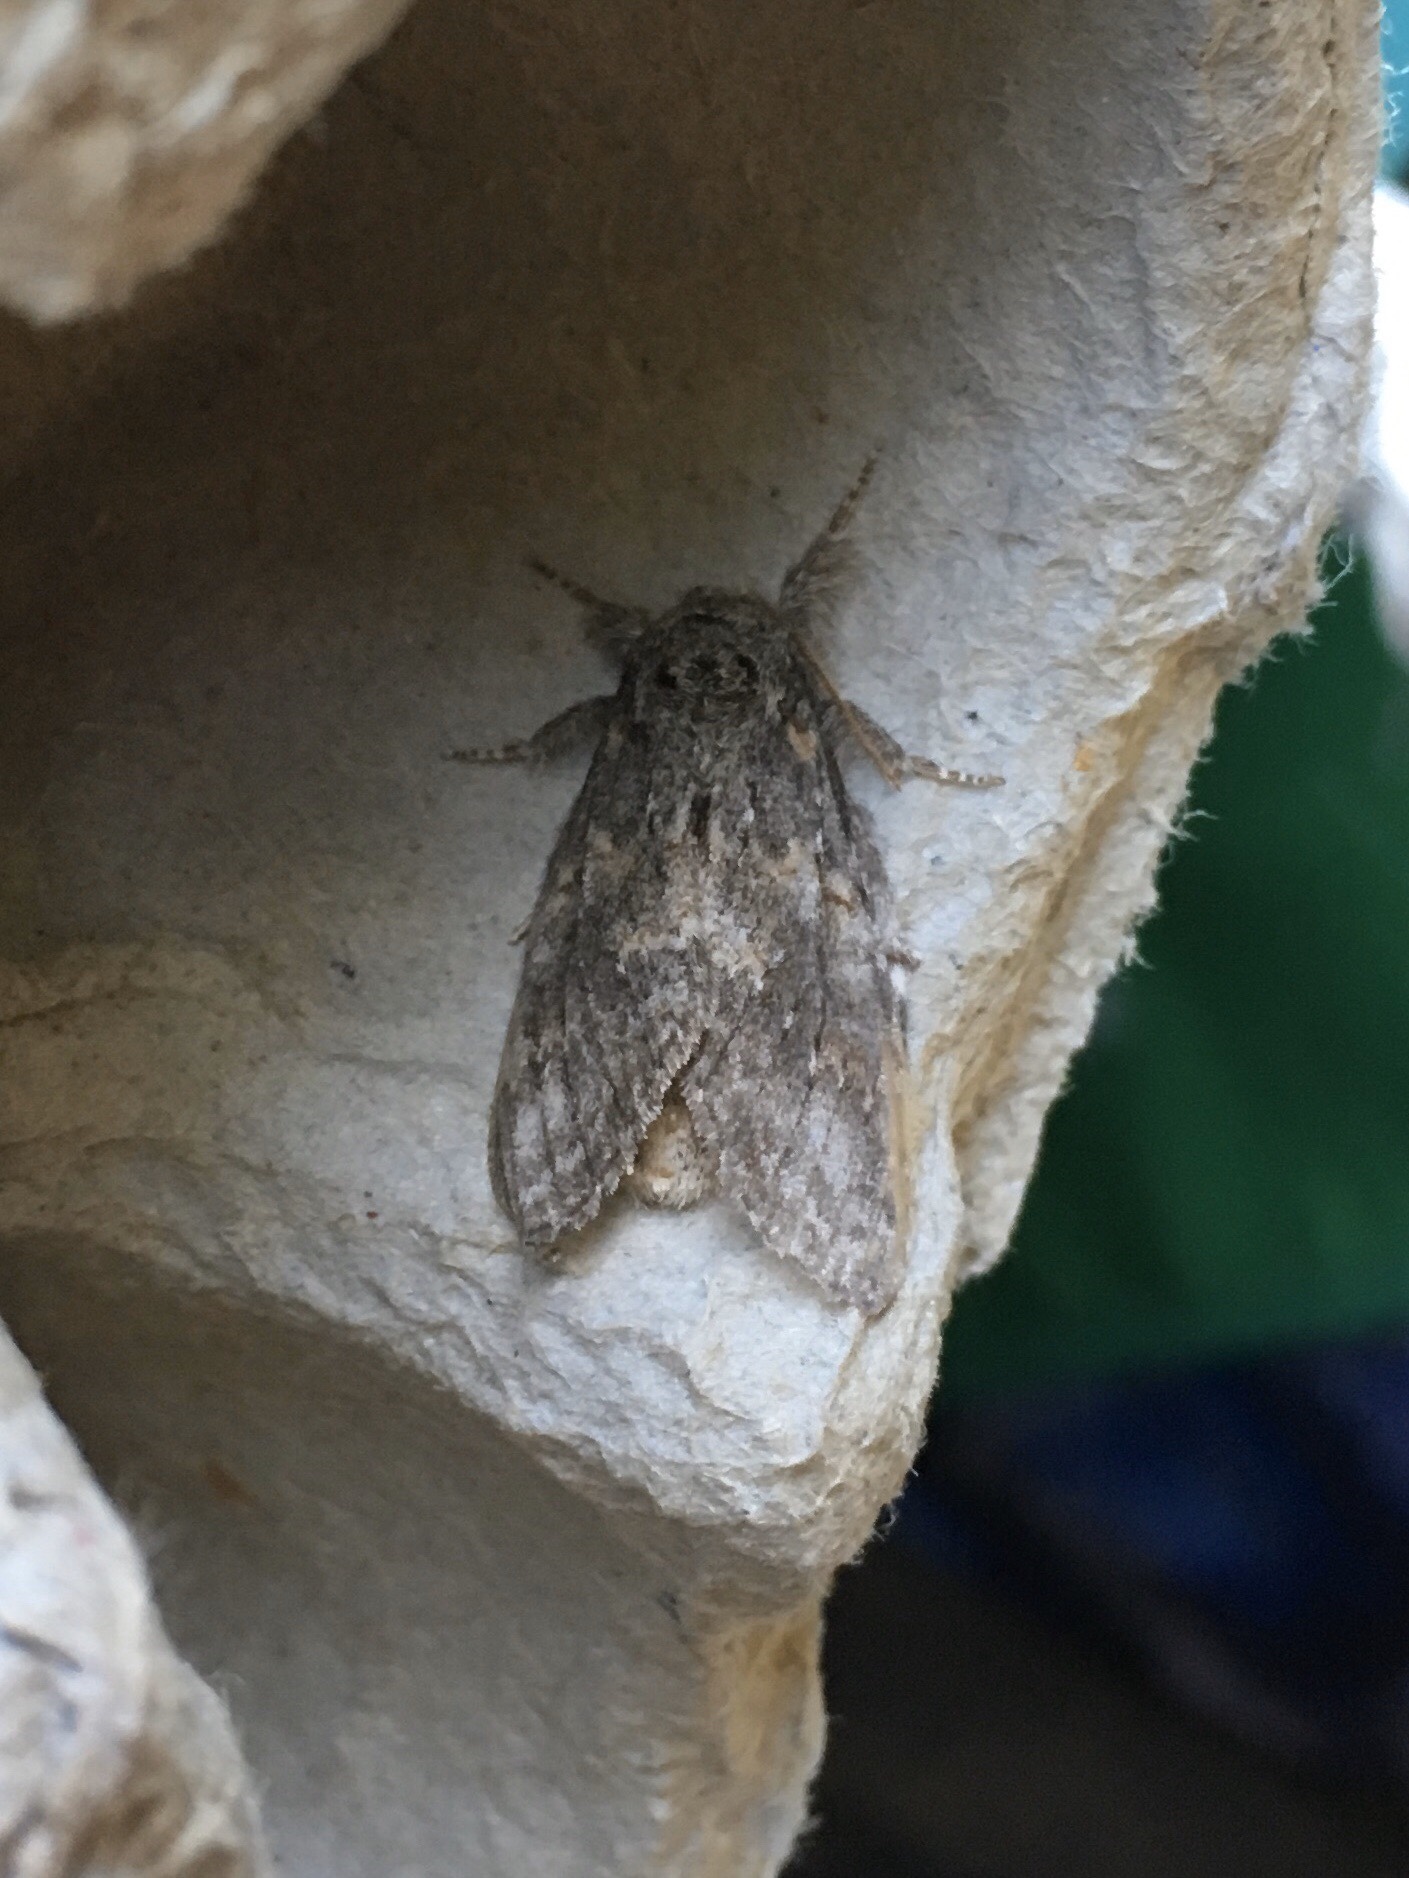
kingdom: Animalia
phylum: Arthropoda
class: Insecta
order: Lepidoptera
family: Notodontidae
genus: Peridea
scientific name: Peridea angulosa
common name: Angulose prominent
